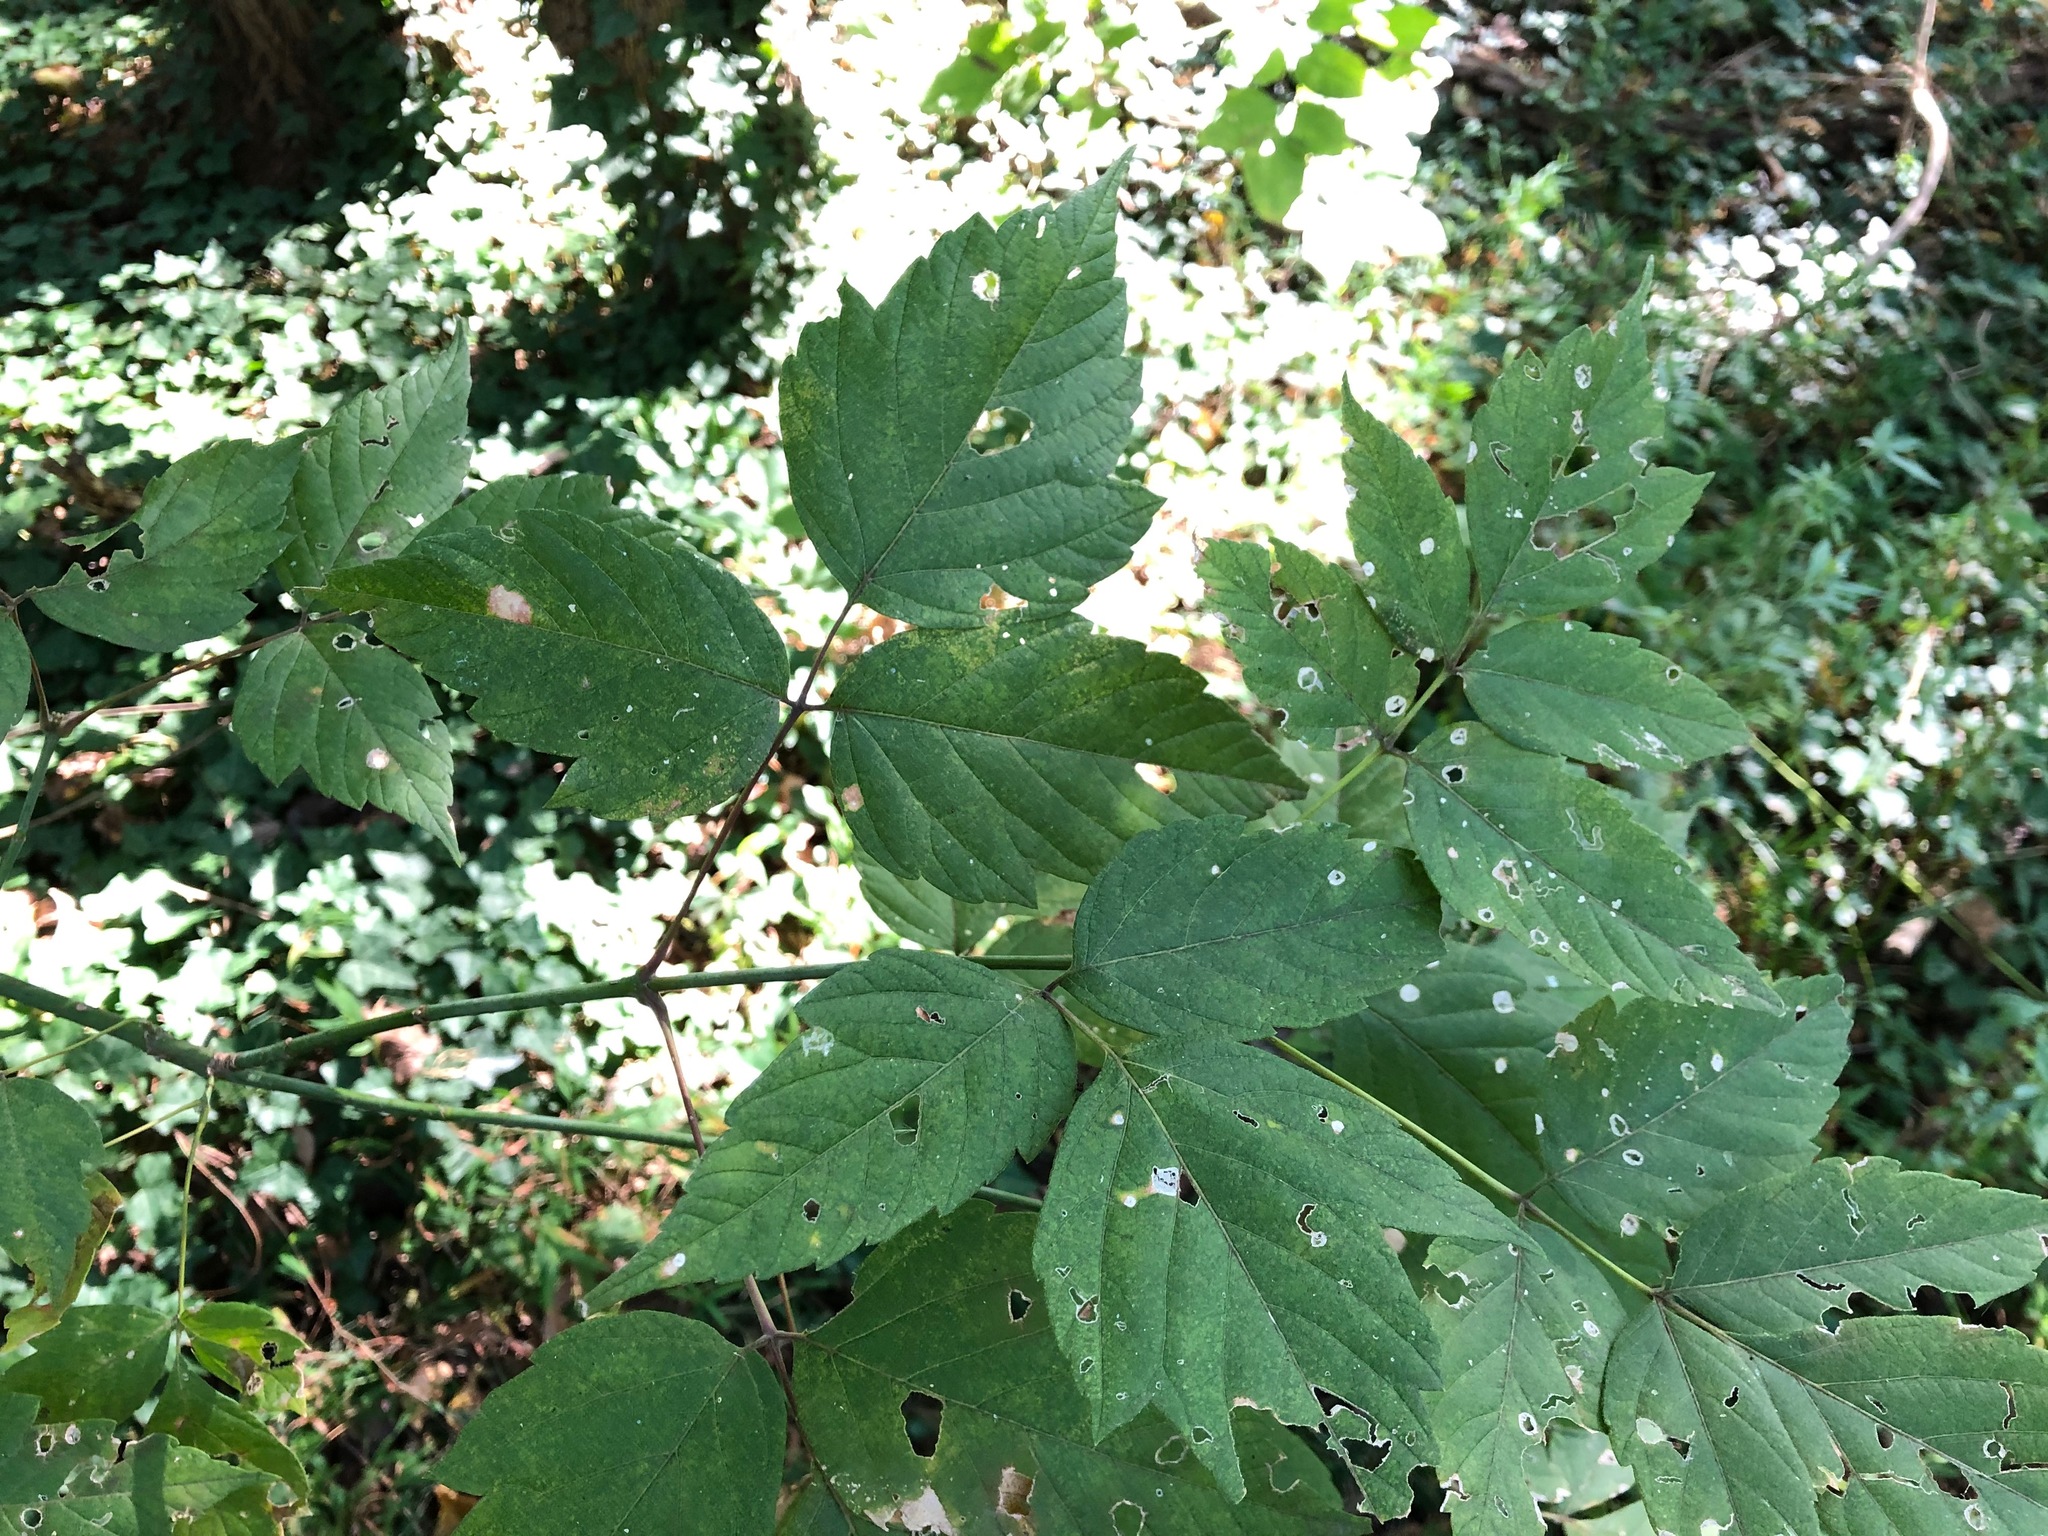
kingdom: Plantae
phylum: Tracheophyta
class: Magnoliopsida
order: Sapindales
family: Sapindaceae
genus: Acer
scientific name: Acer negundo
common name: Ashleaf maple
